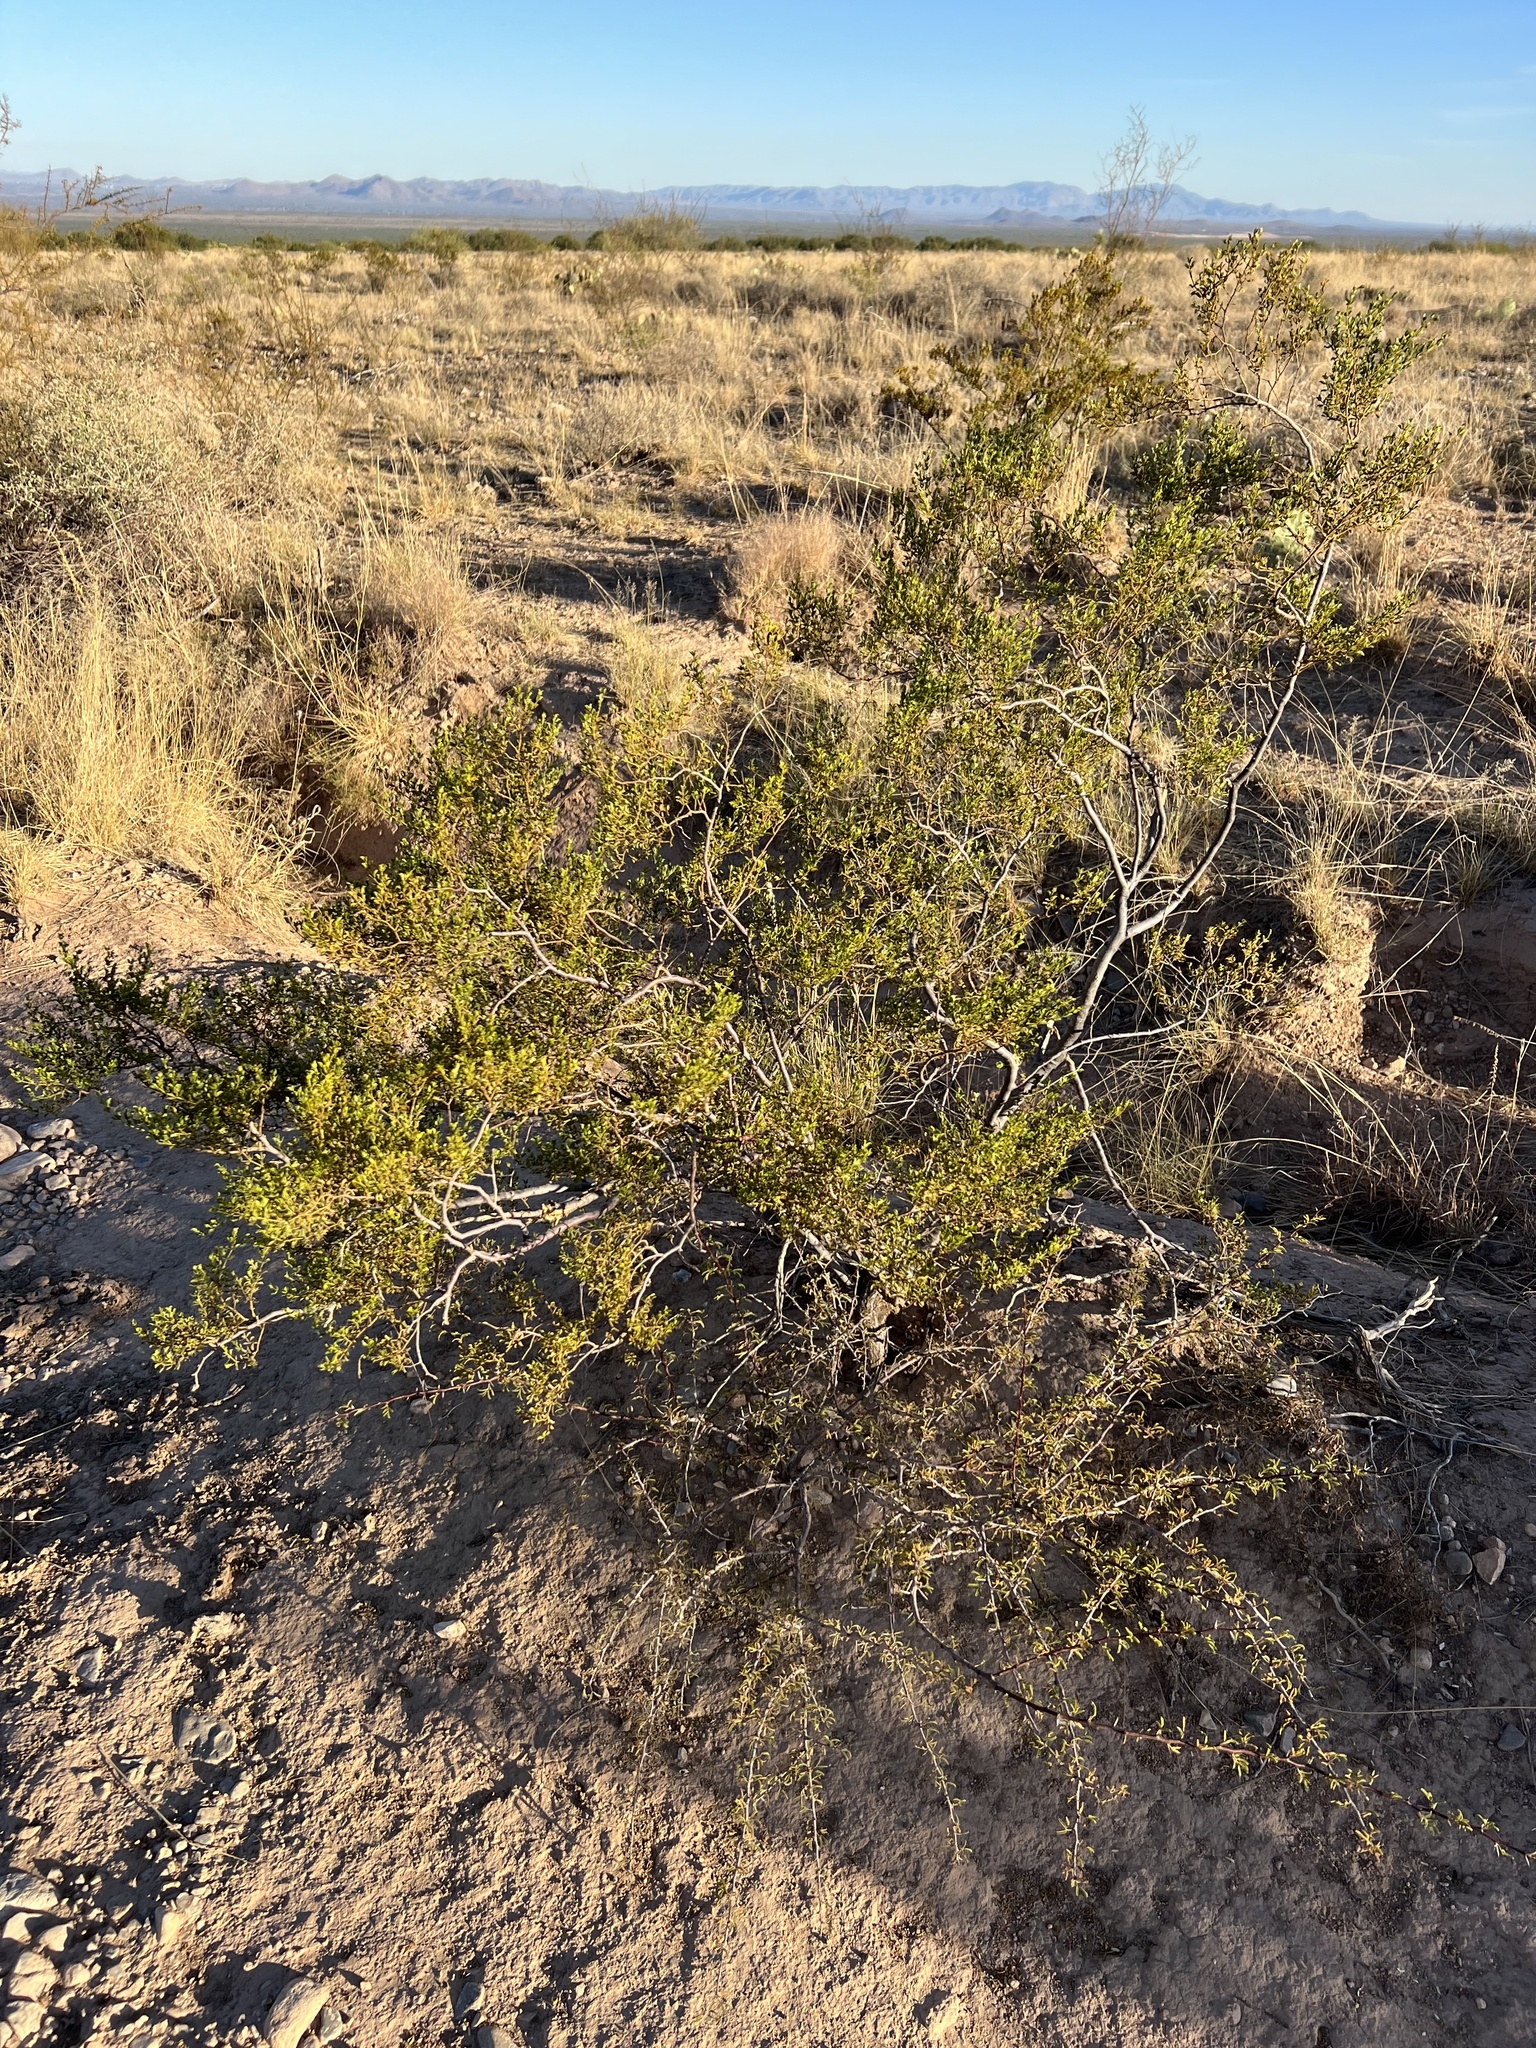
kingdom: Plantae
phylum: Tracheophyta
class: Magnoliopsida
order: Zygophyllales
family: Zygophyllaceae
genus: Larrea
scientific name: Larrea tridentata
